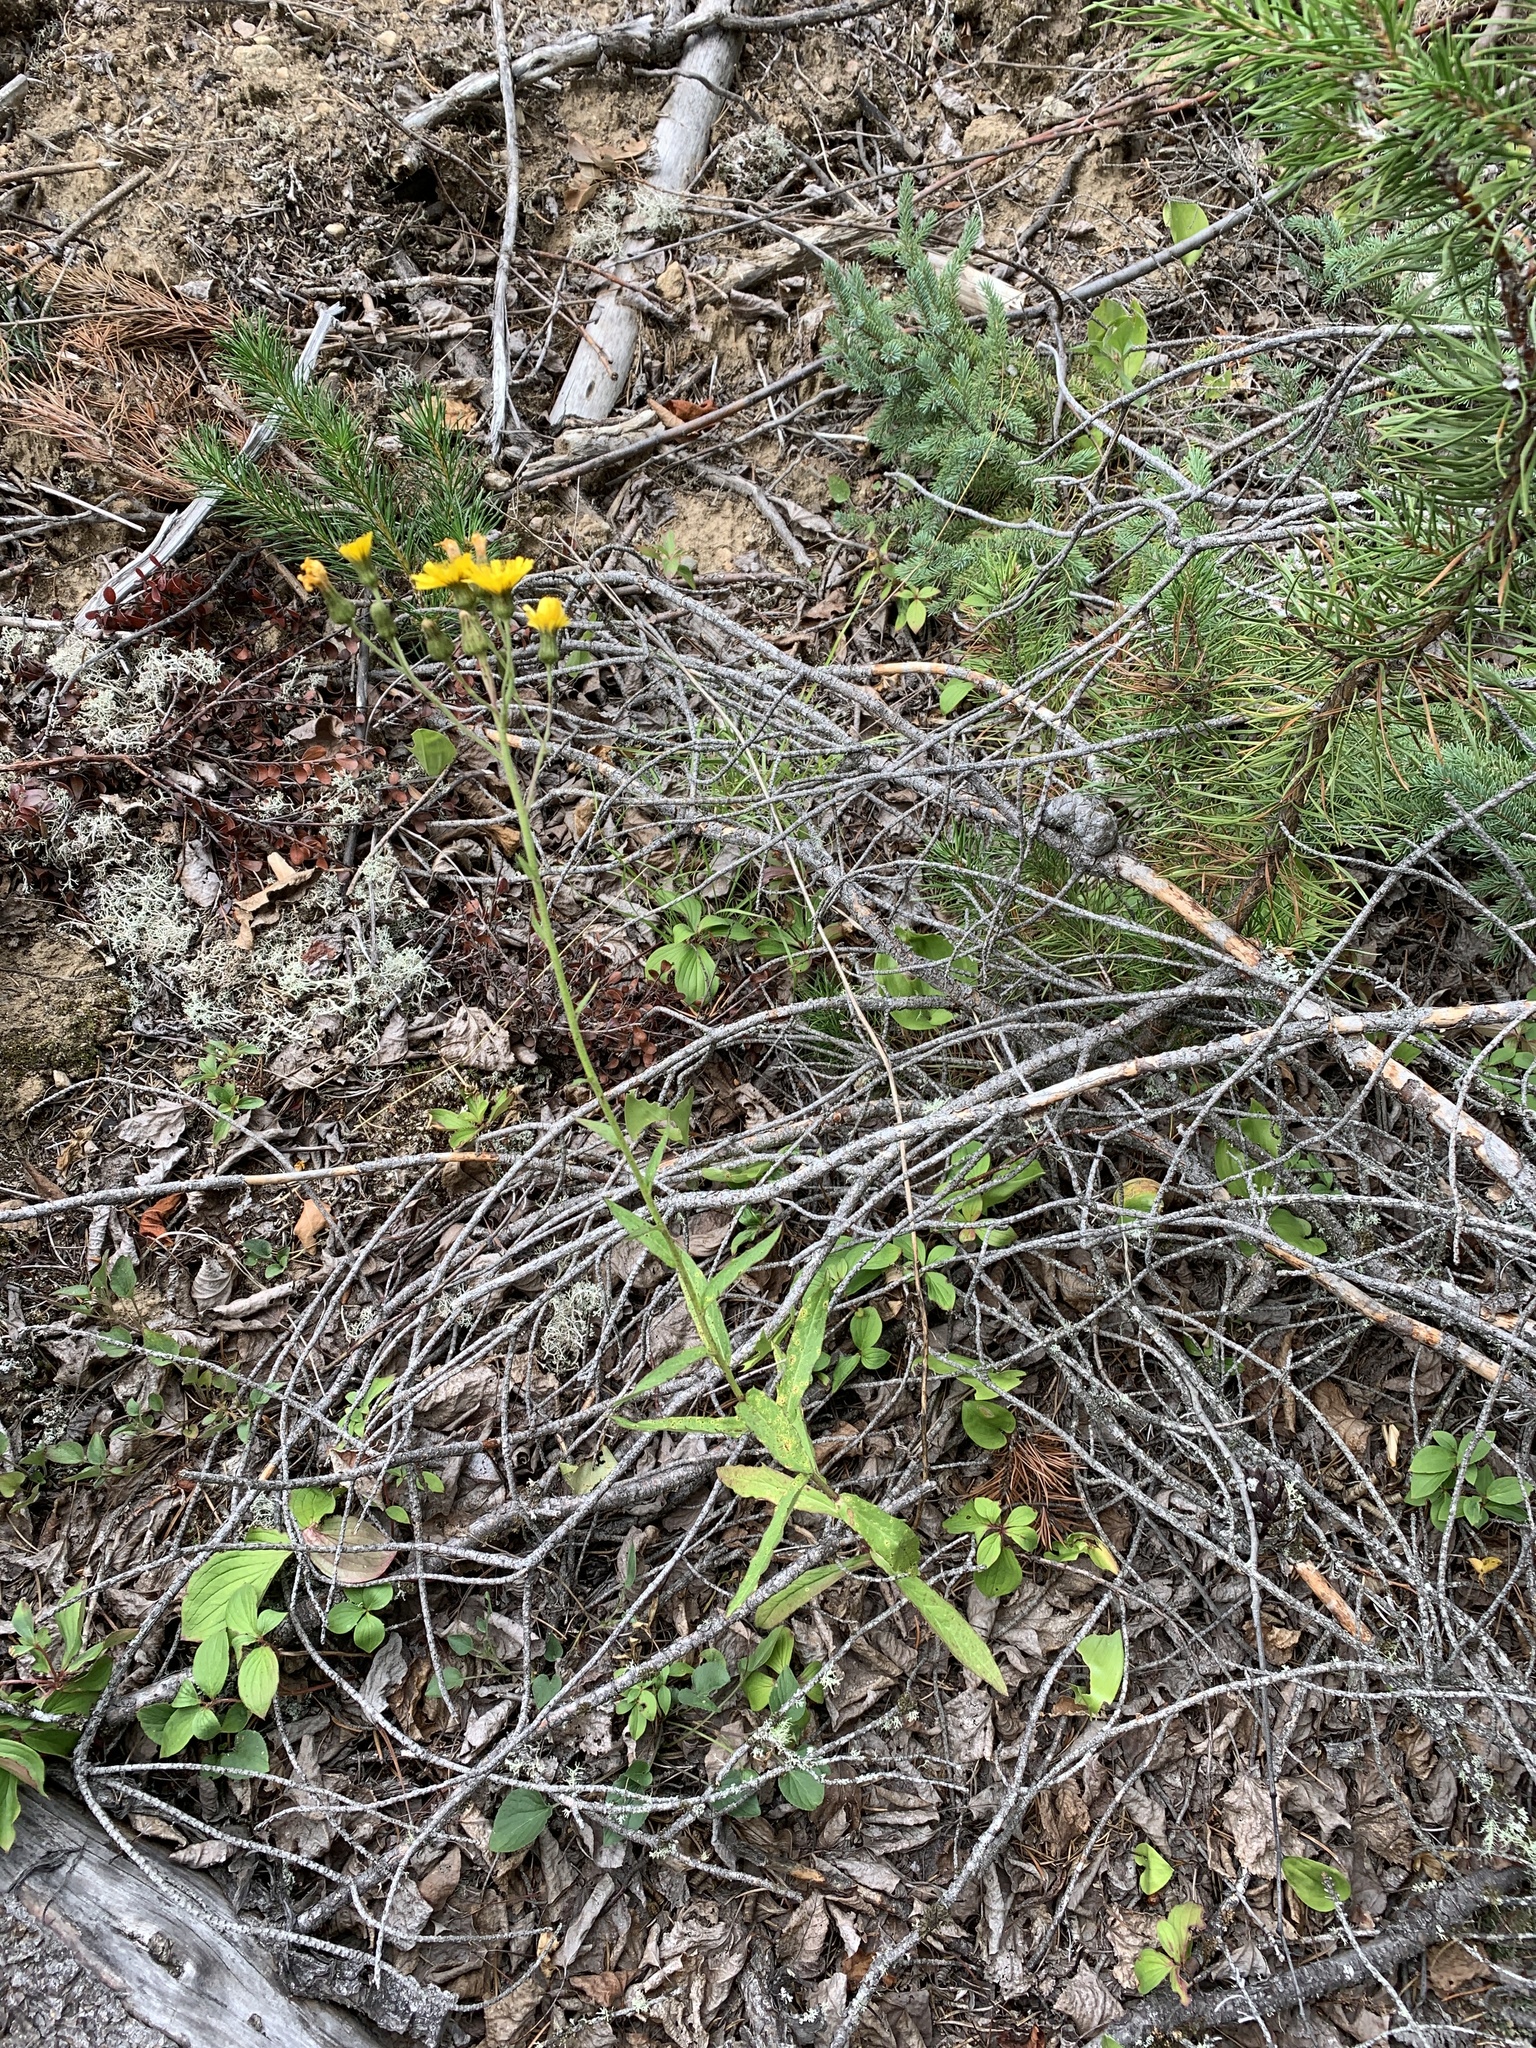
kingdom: Plantae
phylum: Tracheophyta
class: Magnoliopsida
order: Asterales
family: Asteraceae
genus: Hieracium
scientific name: Hieracium umbellatum
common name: Northern hawkweed
